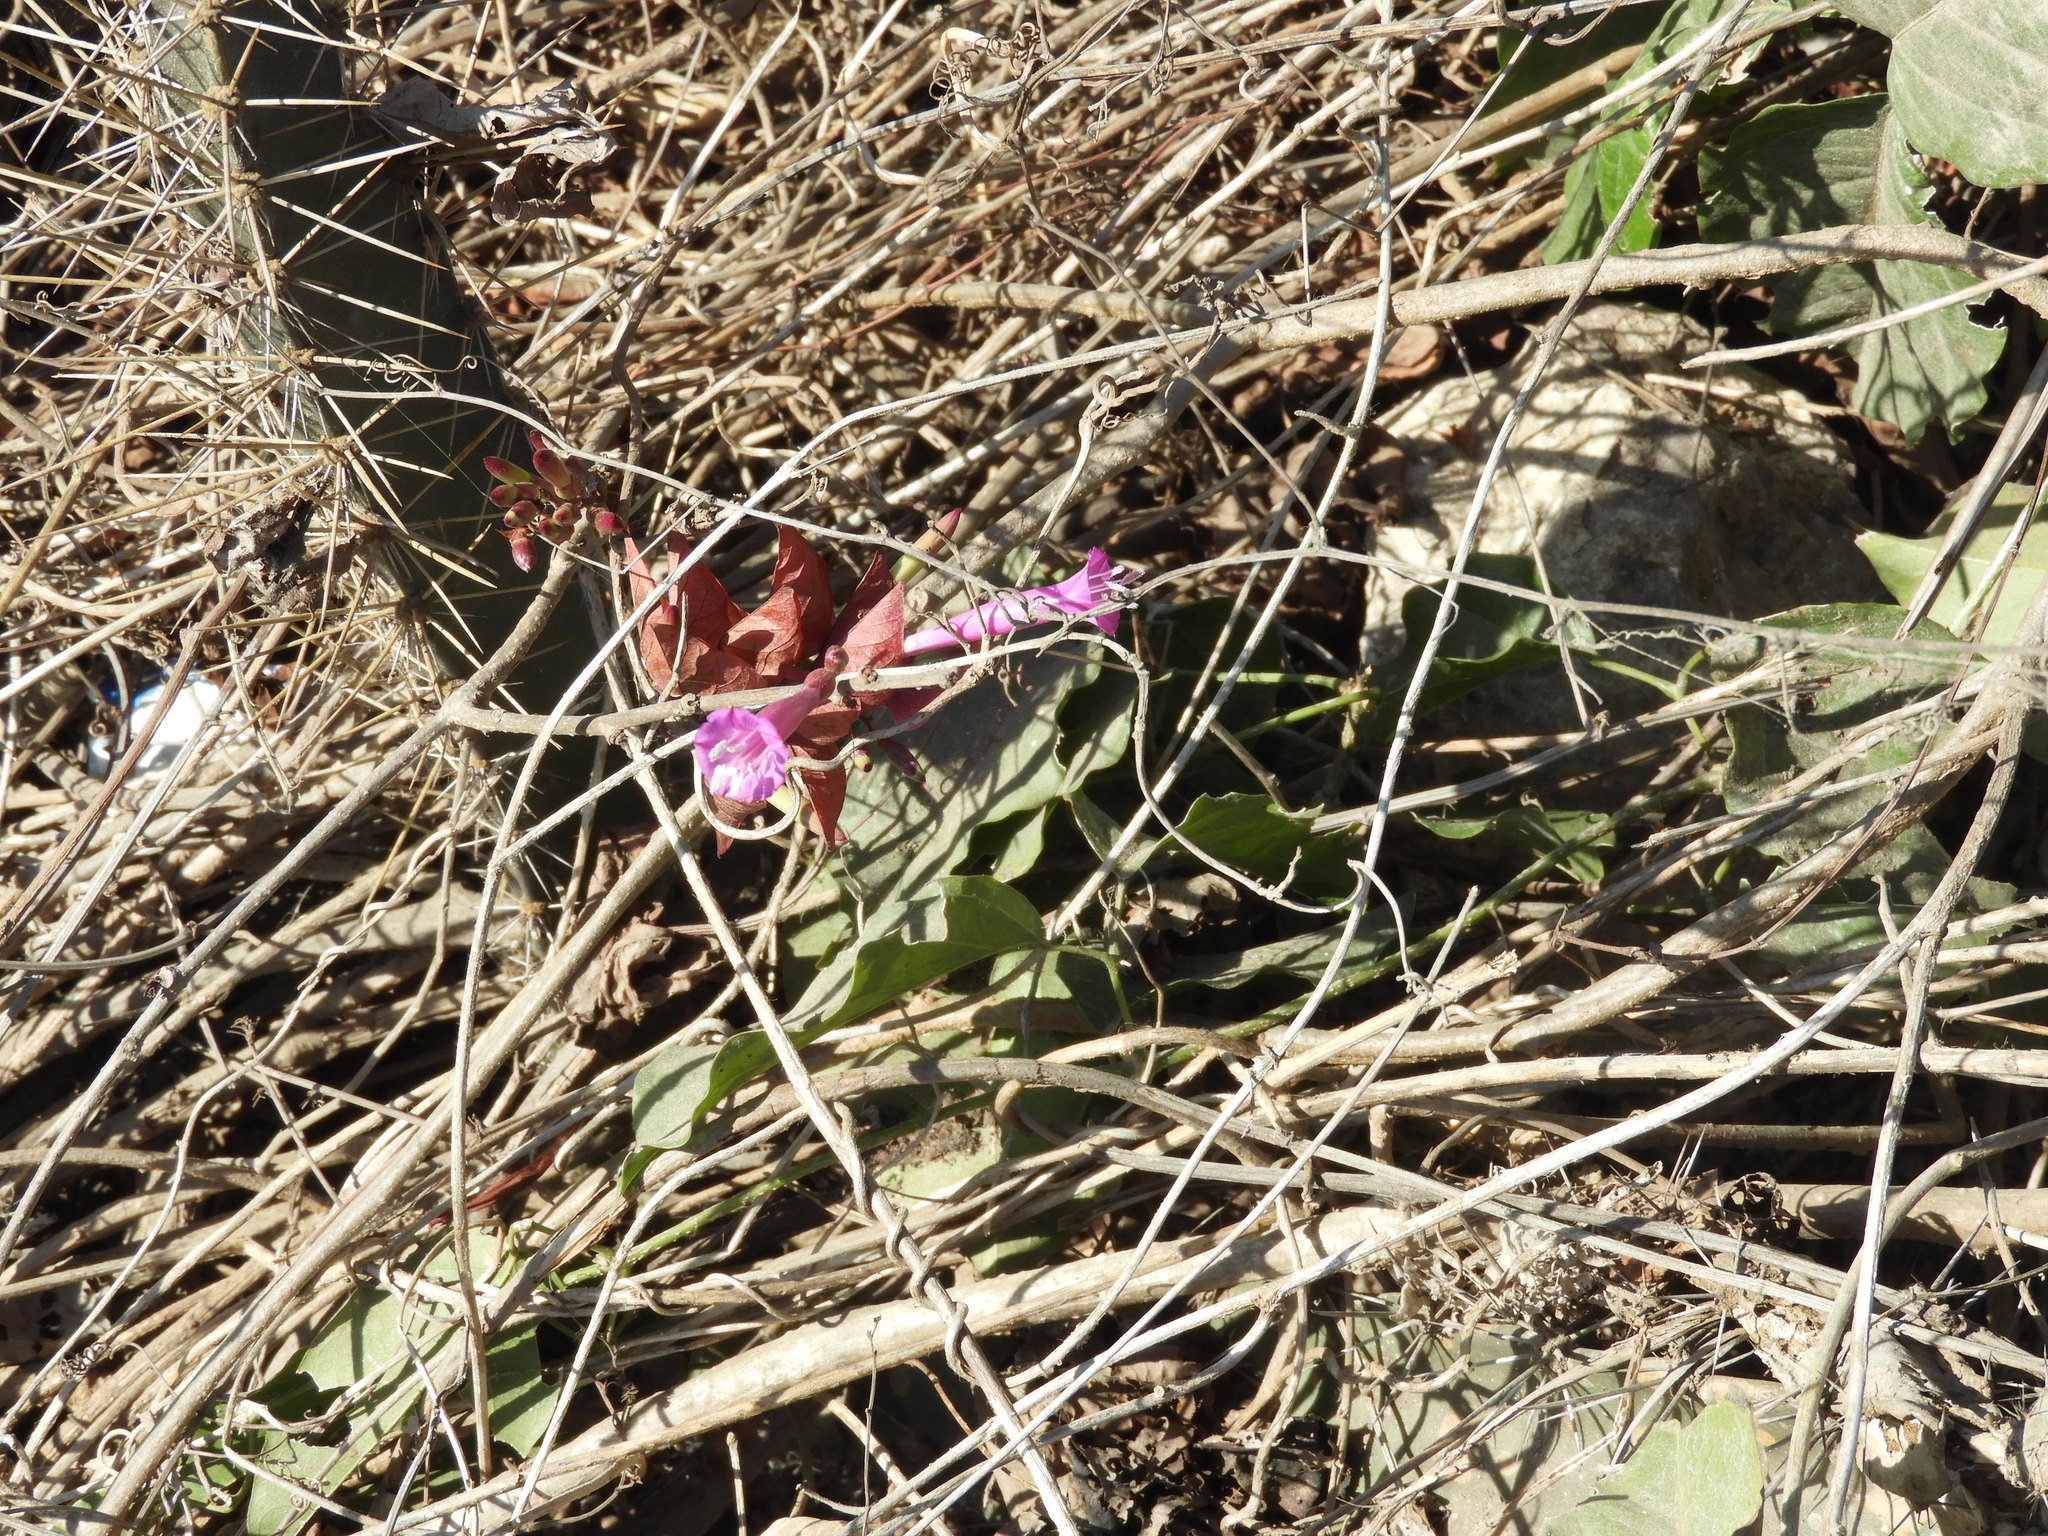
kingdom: Plantae
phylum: Tracheophyta
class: Magnoliopsida
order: Solanales
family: Convolvulaceae
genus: Ipomoea
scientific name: Ipomoea bracteata
